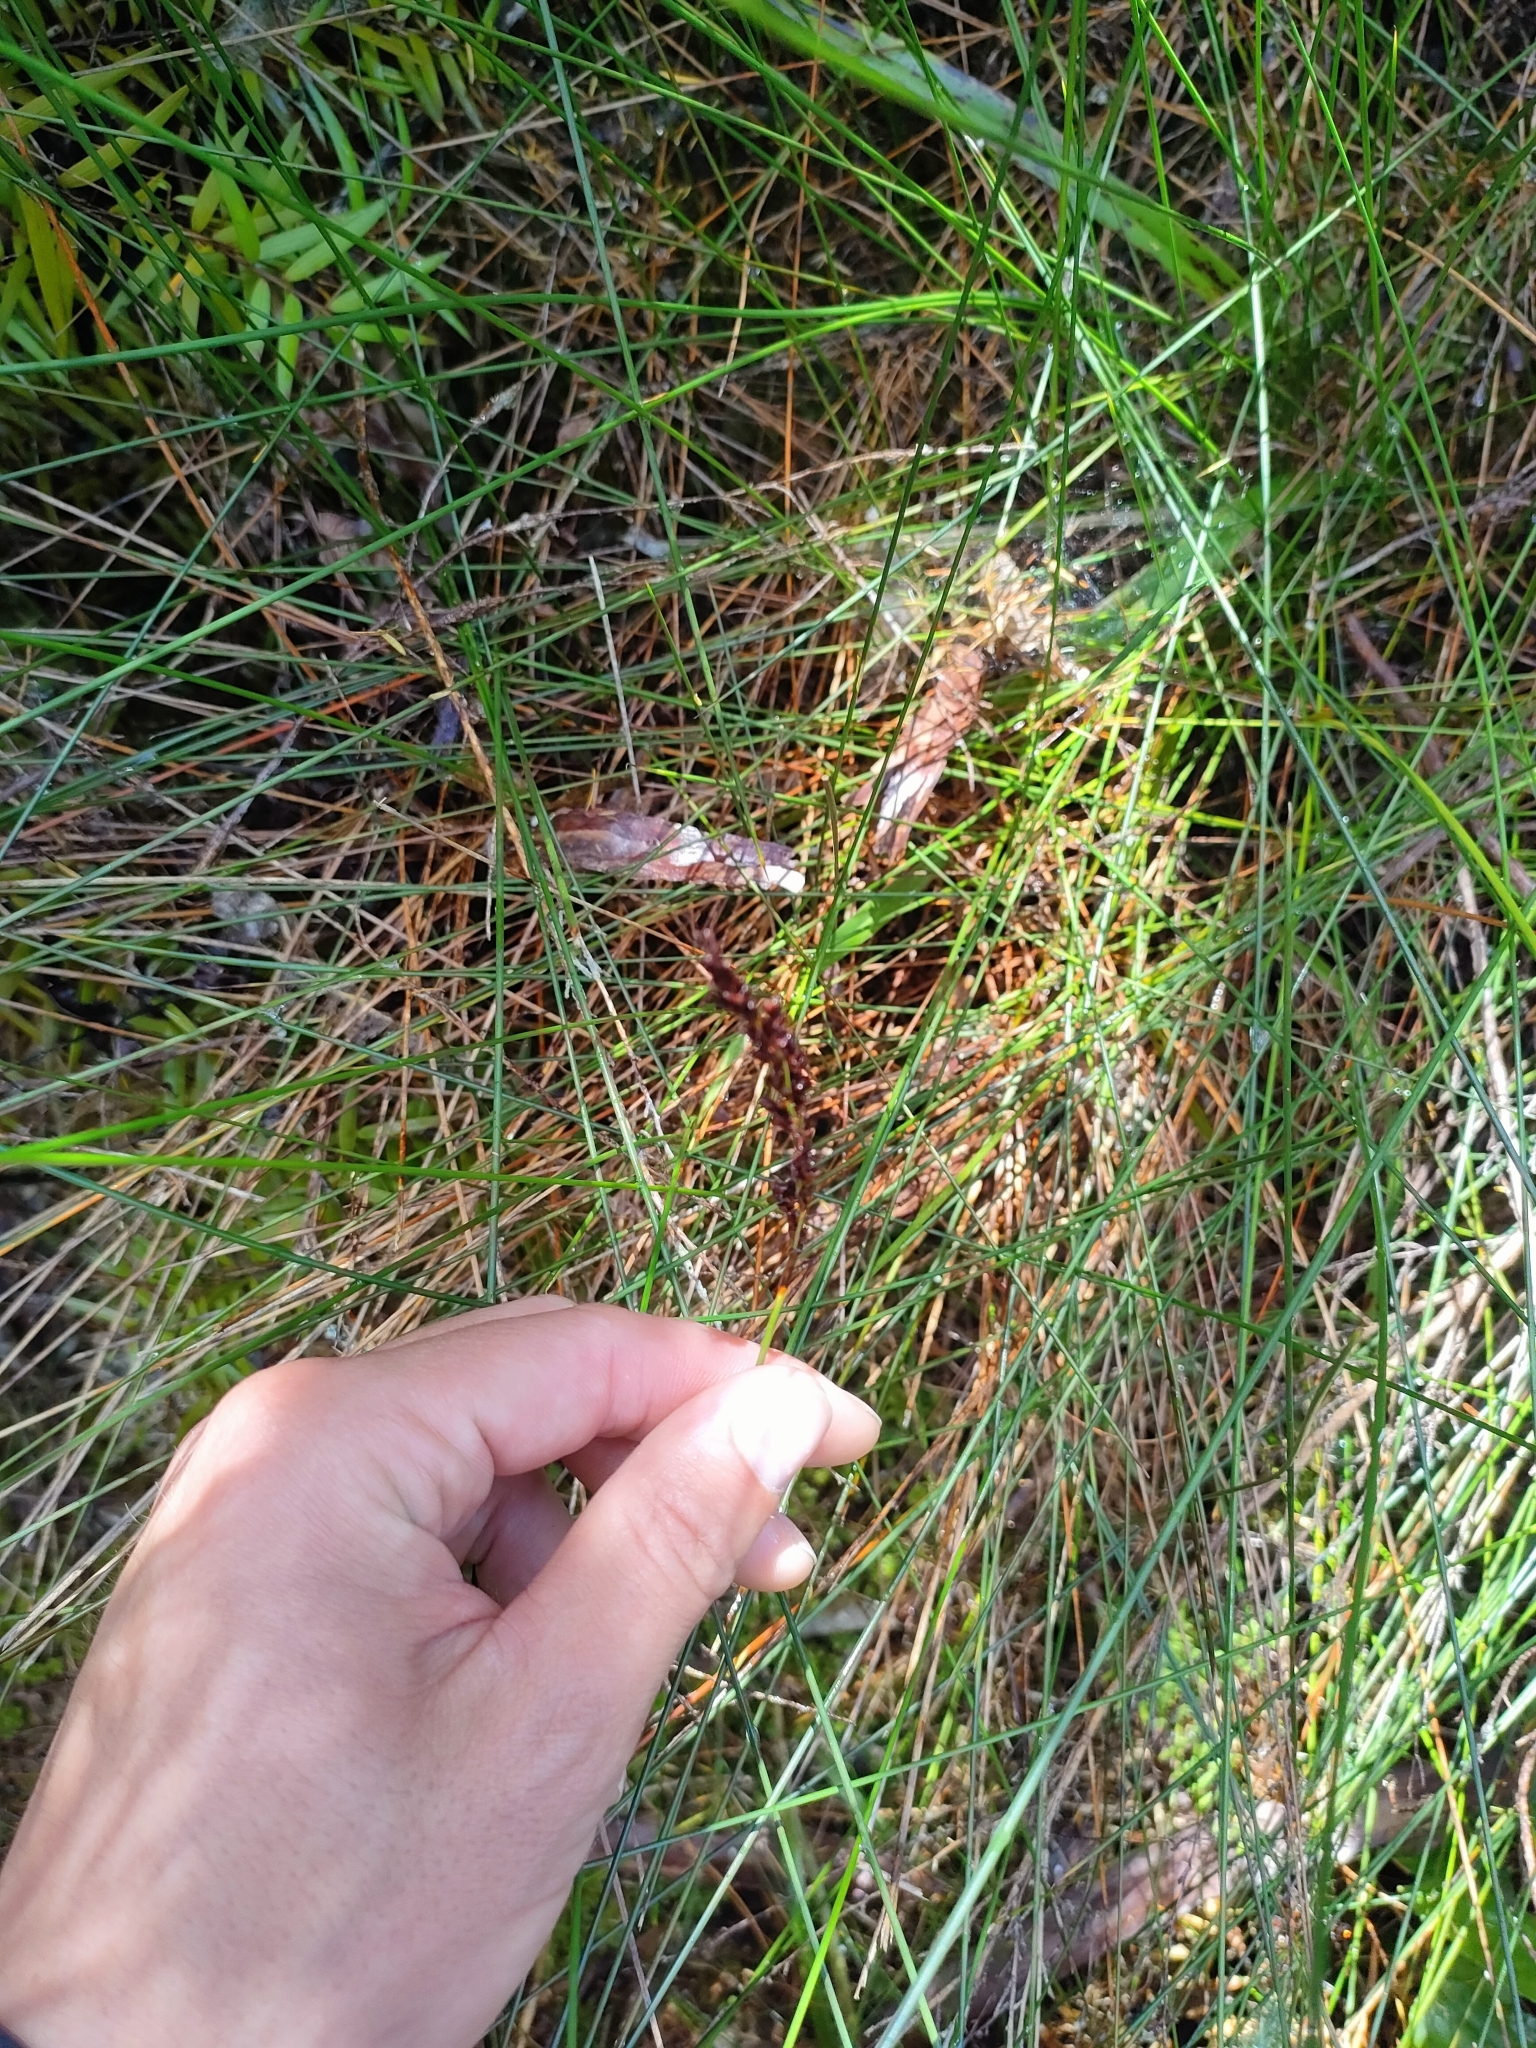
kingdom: Plantae
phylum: Tracheophyta
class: Liliopsida
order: Poales
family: Cyperaceae
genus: Machaerina
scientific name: Machaerina juncea
